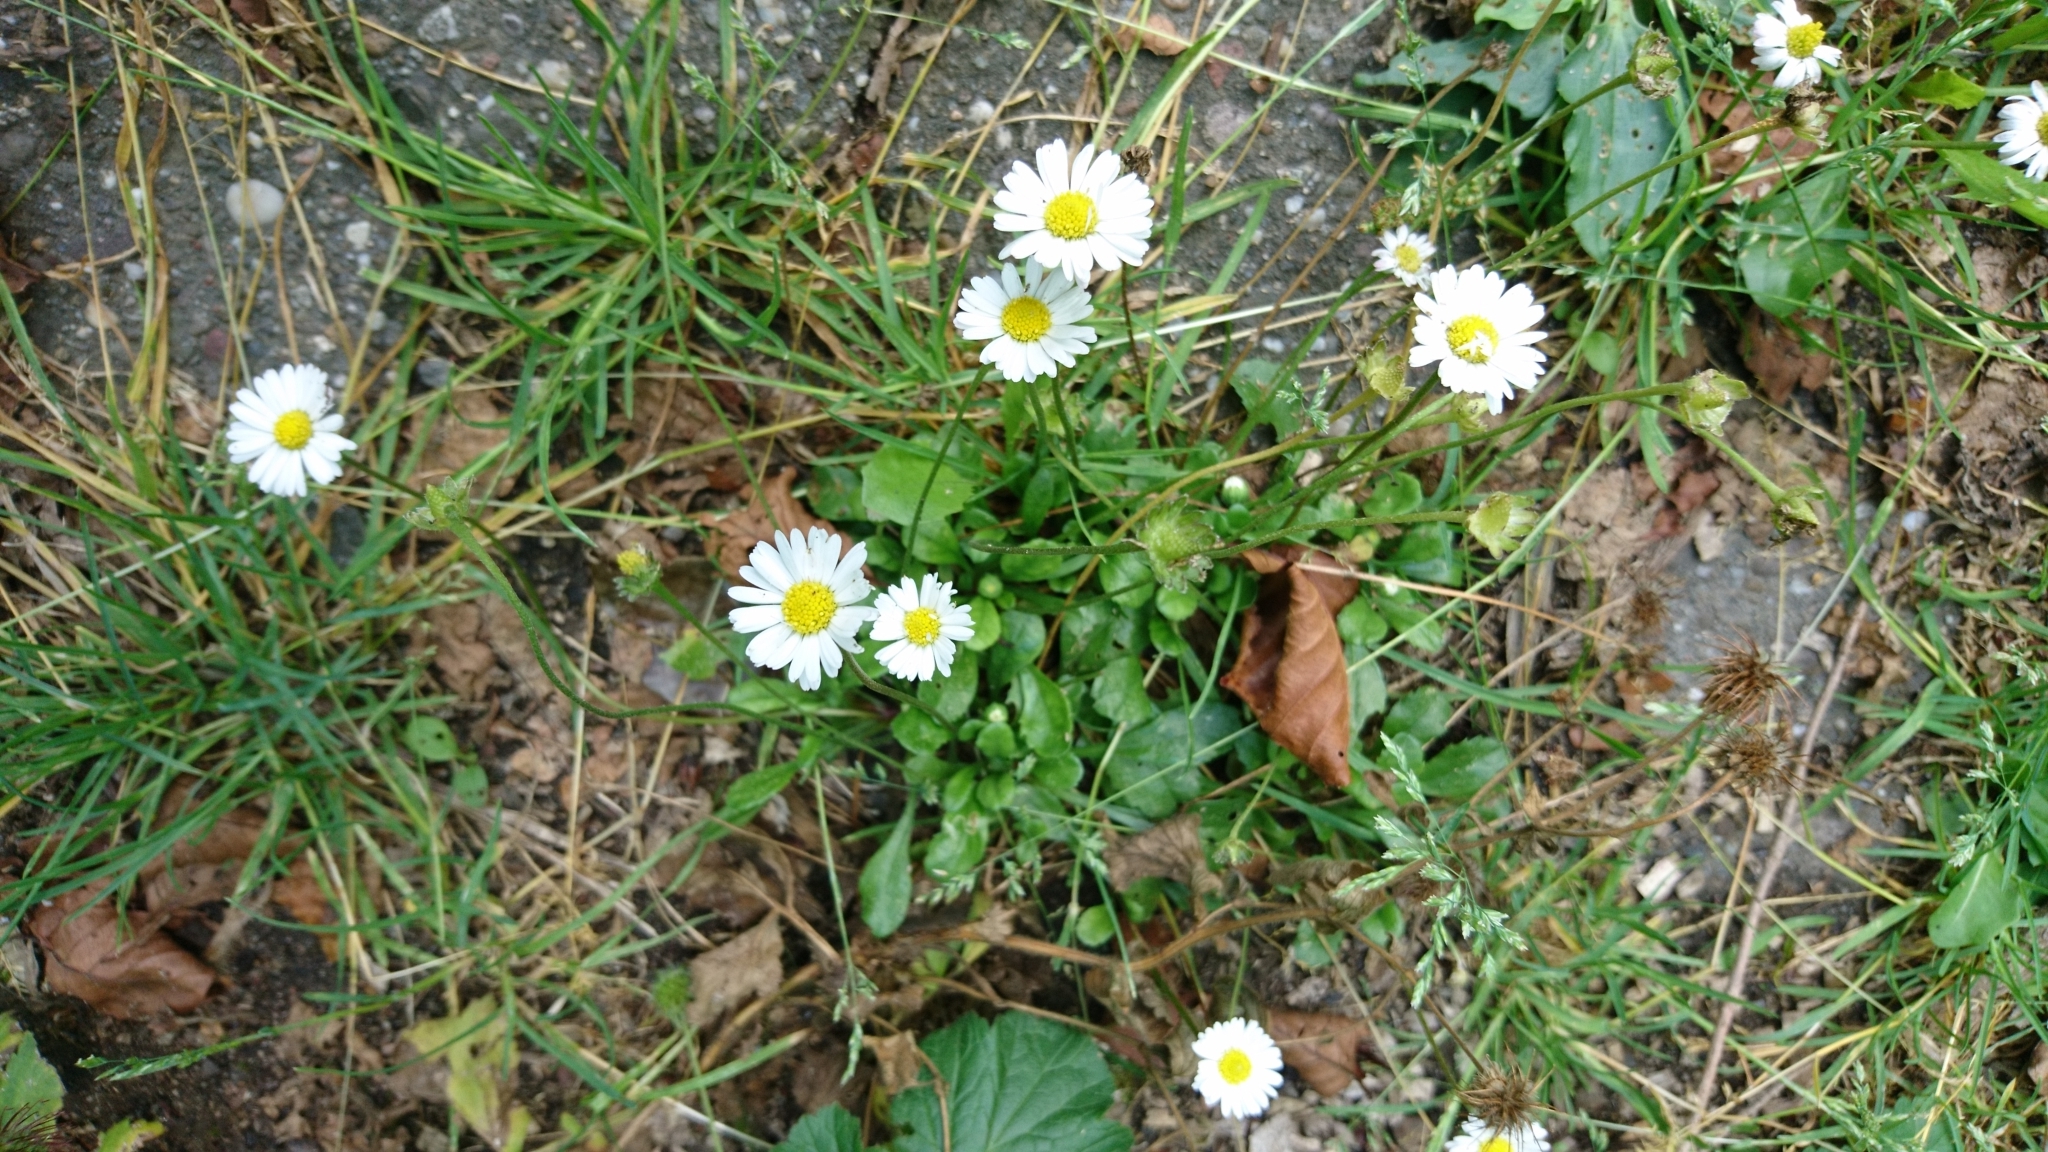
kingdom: Plantae
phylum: Tracheophyta
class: Magnoliopsida
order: Asterales
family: Asteraceae
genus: Bellis
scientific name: Bellis perennis
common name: Lawndaisy
